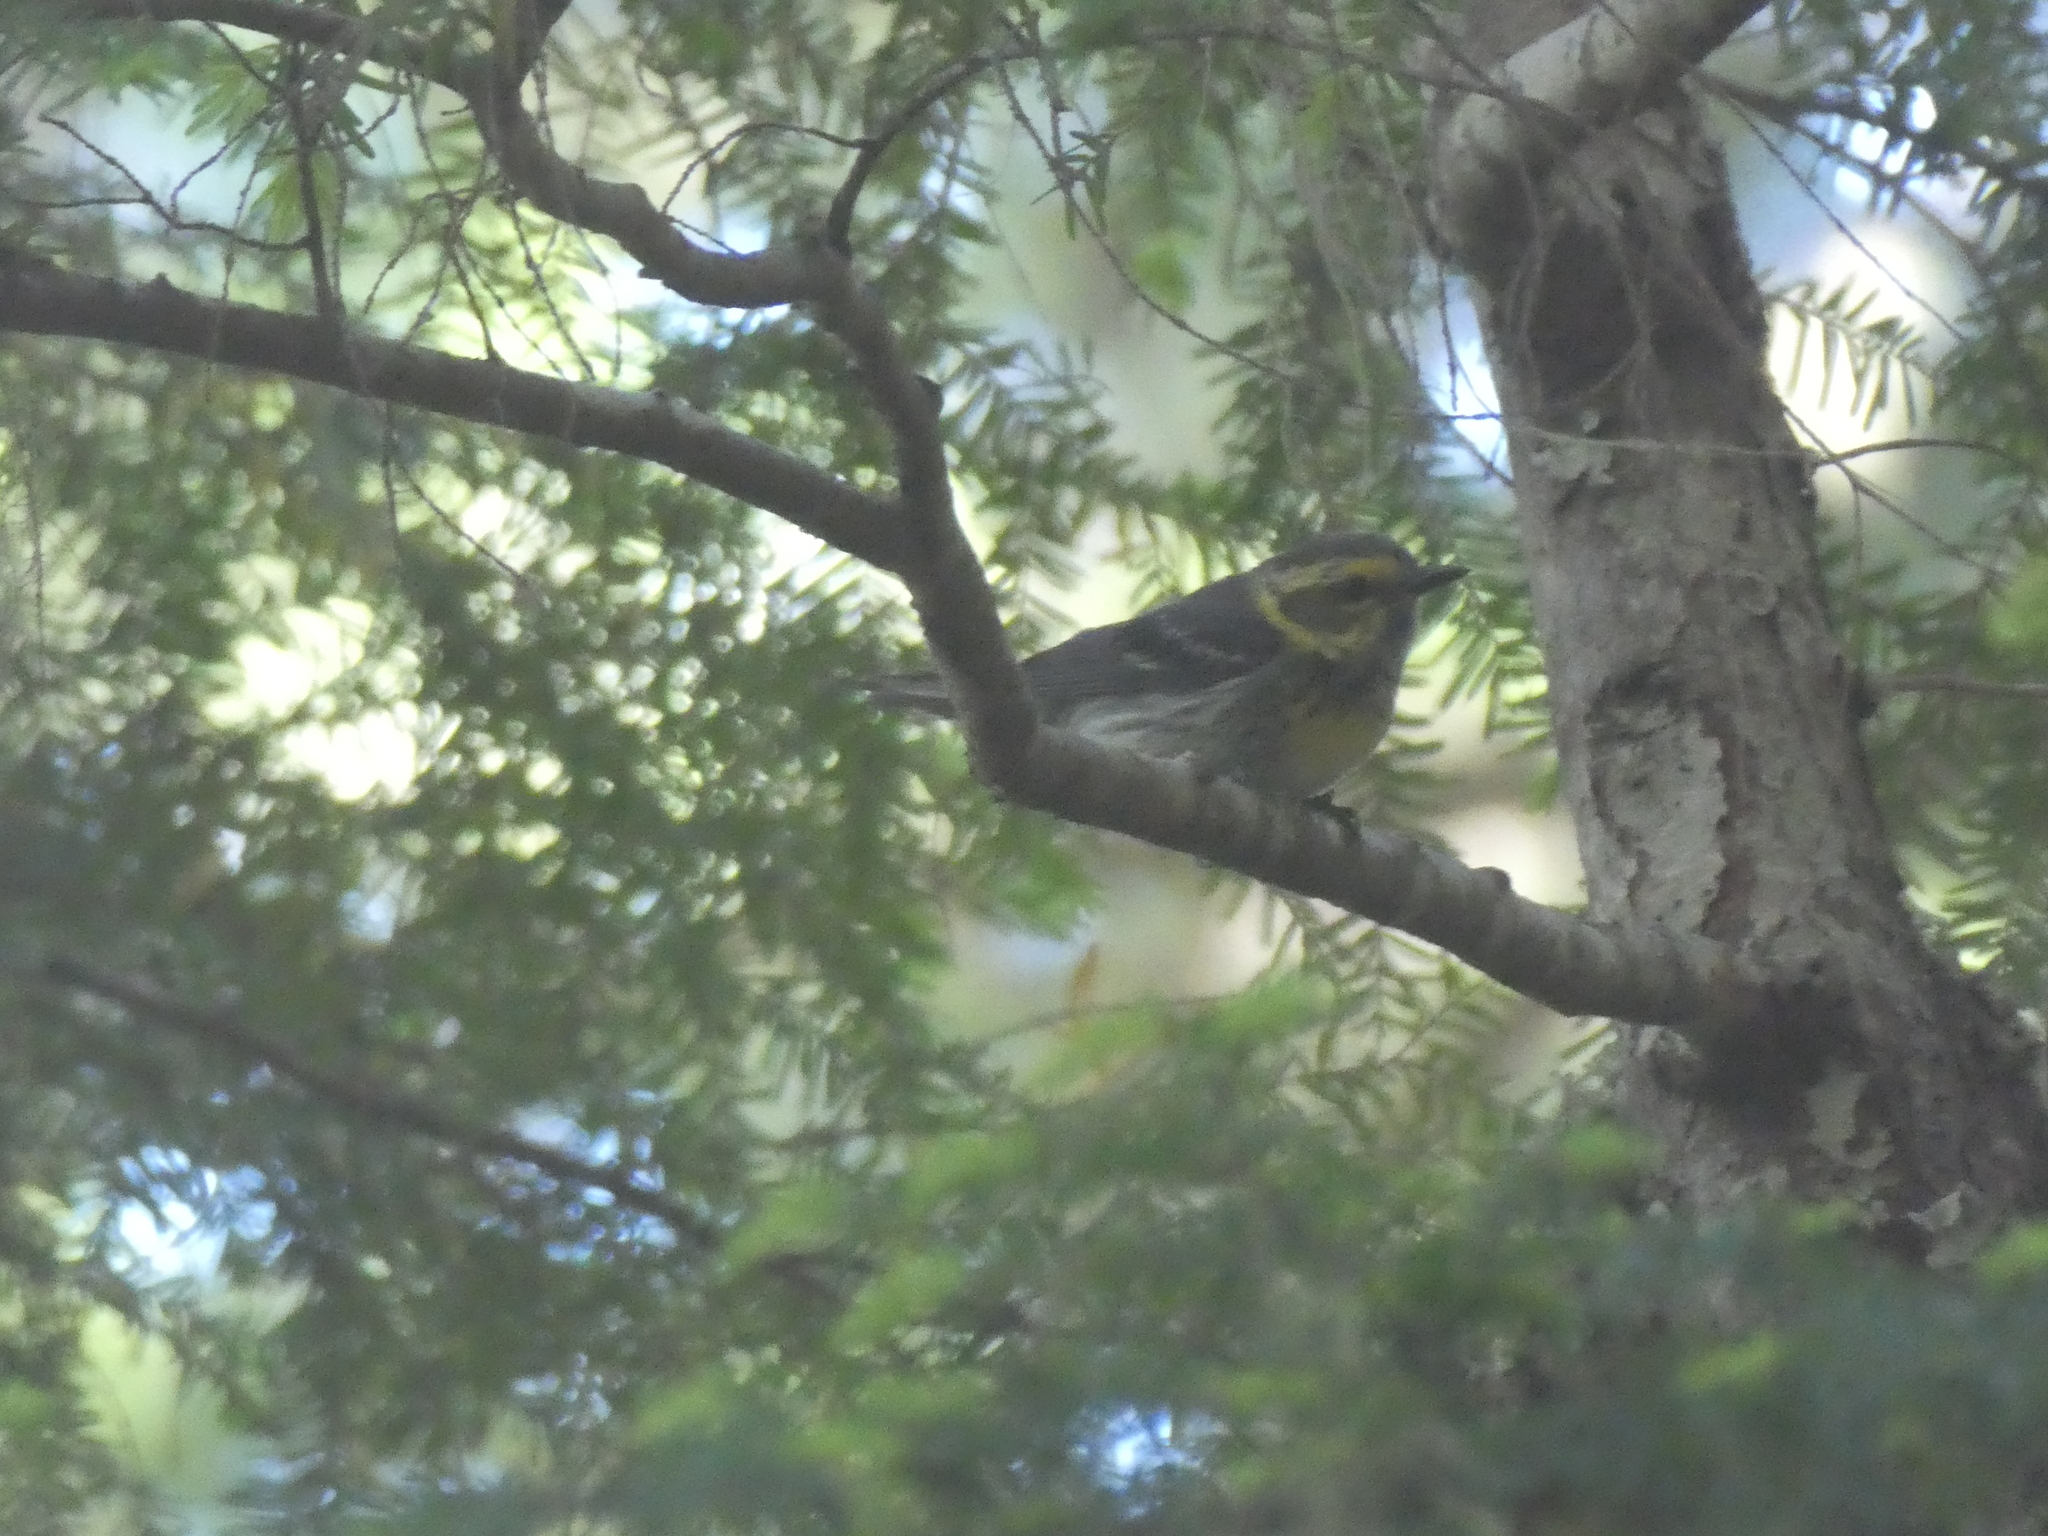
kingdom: Animalia
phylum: Chordata
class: Aves
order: Passeriformes
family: Parulidae
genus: Setophaga
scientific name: Setophaga townsendi
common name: Townsend's warbler
